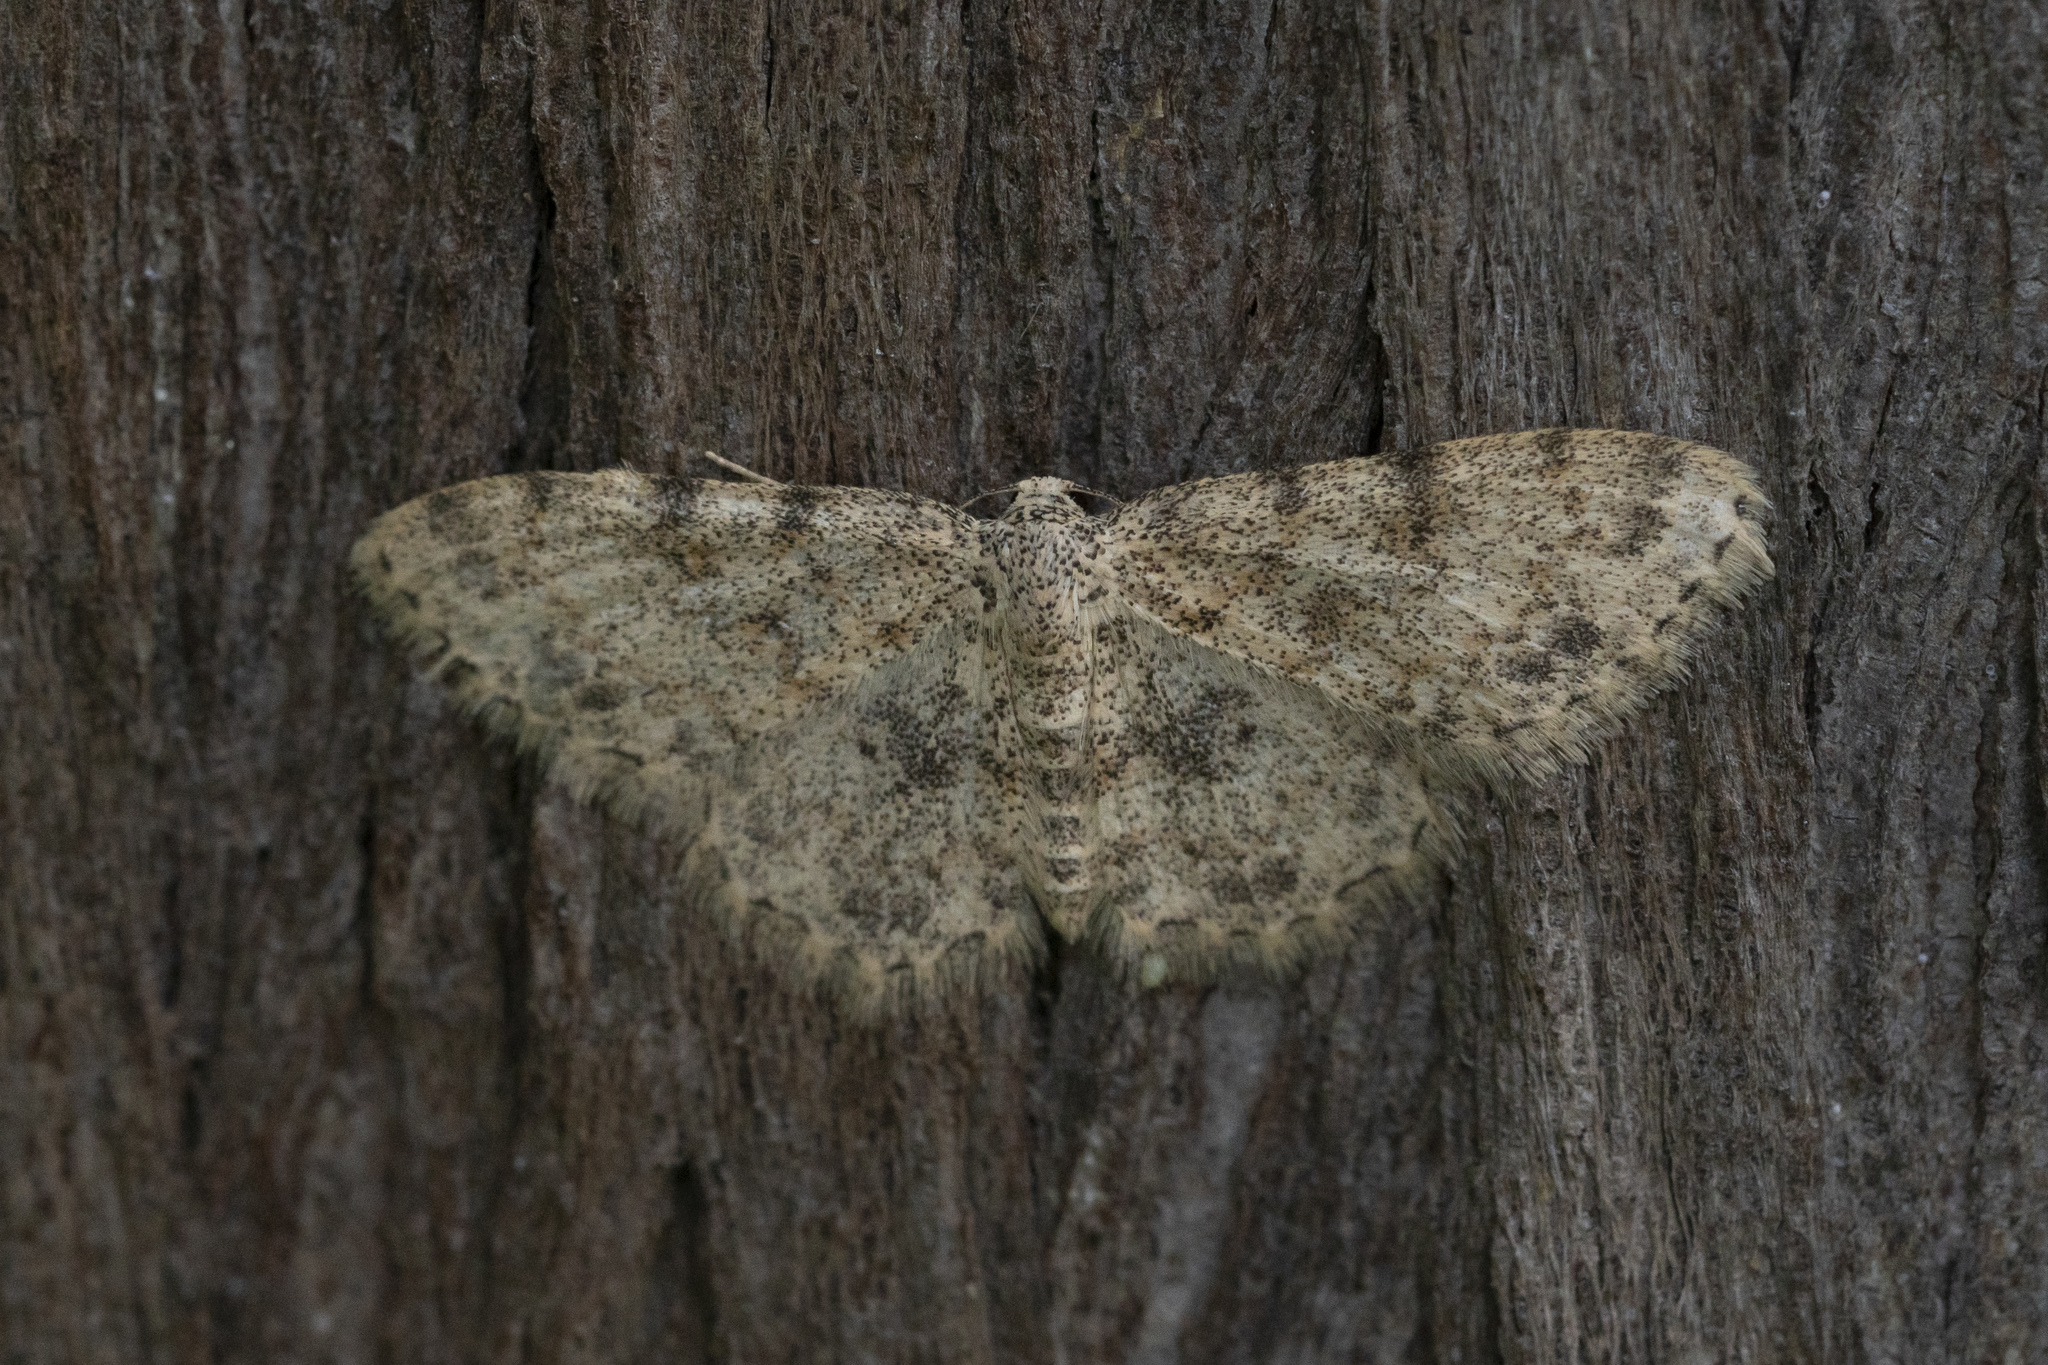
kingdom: Animalia
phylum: Arthropoda
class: Insecta
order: Lepidoptera
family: Geometridae
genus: Scopula
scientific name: Scopula luridata
